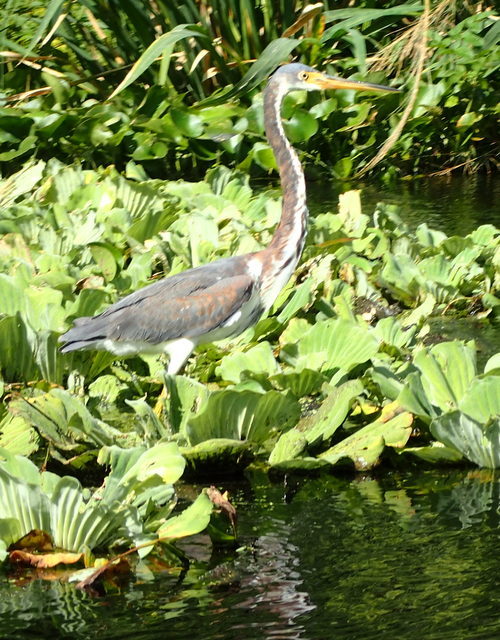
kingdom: Animalia
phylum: Chordata
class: Aves
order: Pelecaniformes
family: Ardeidae
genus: Egretta
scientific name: Egretta tricolor
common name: Tricolored heron
